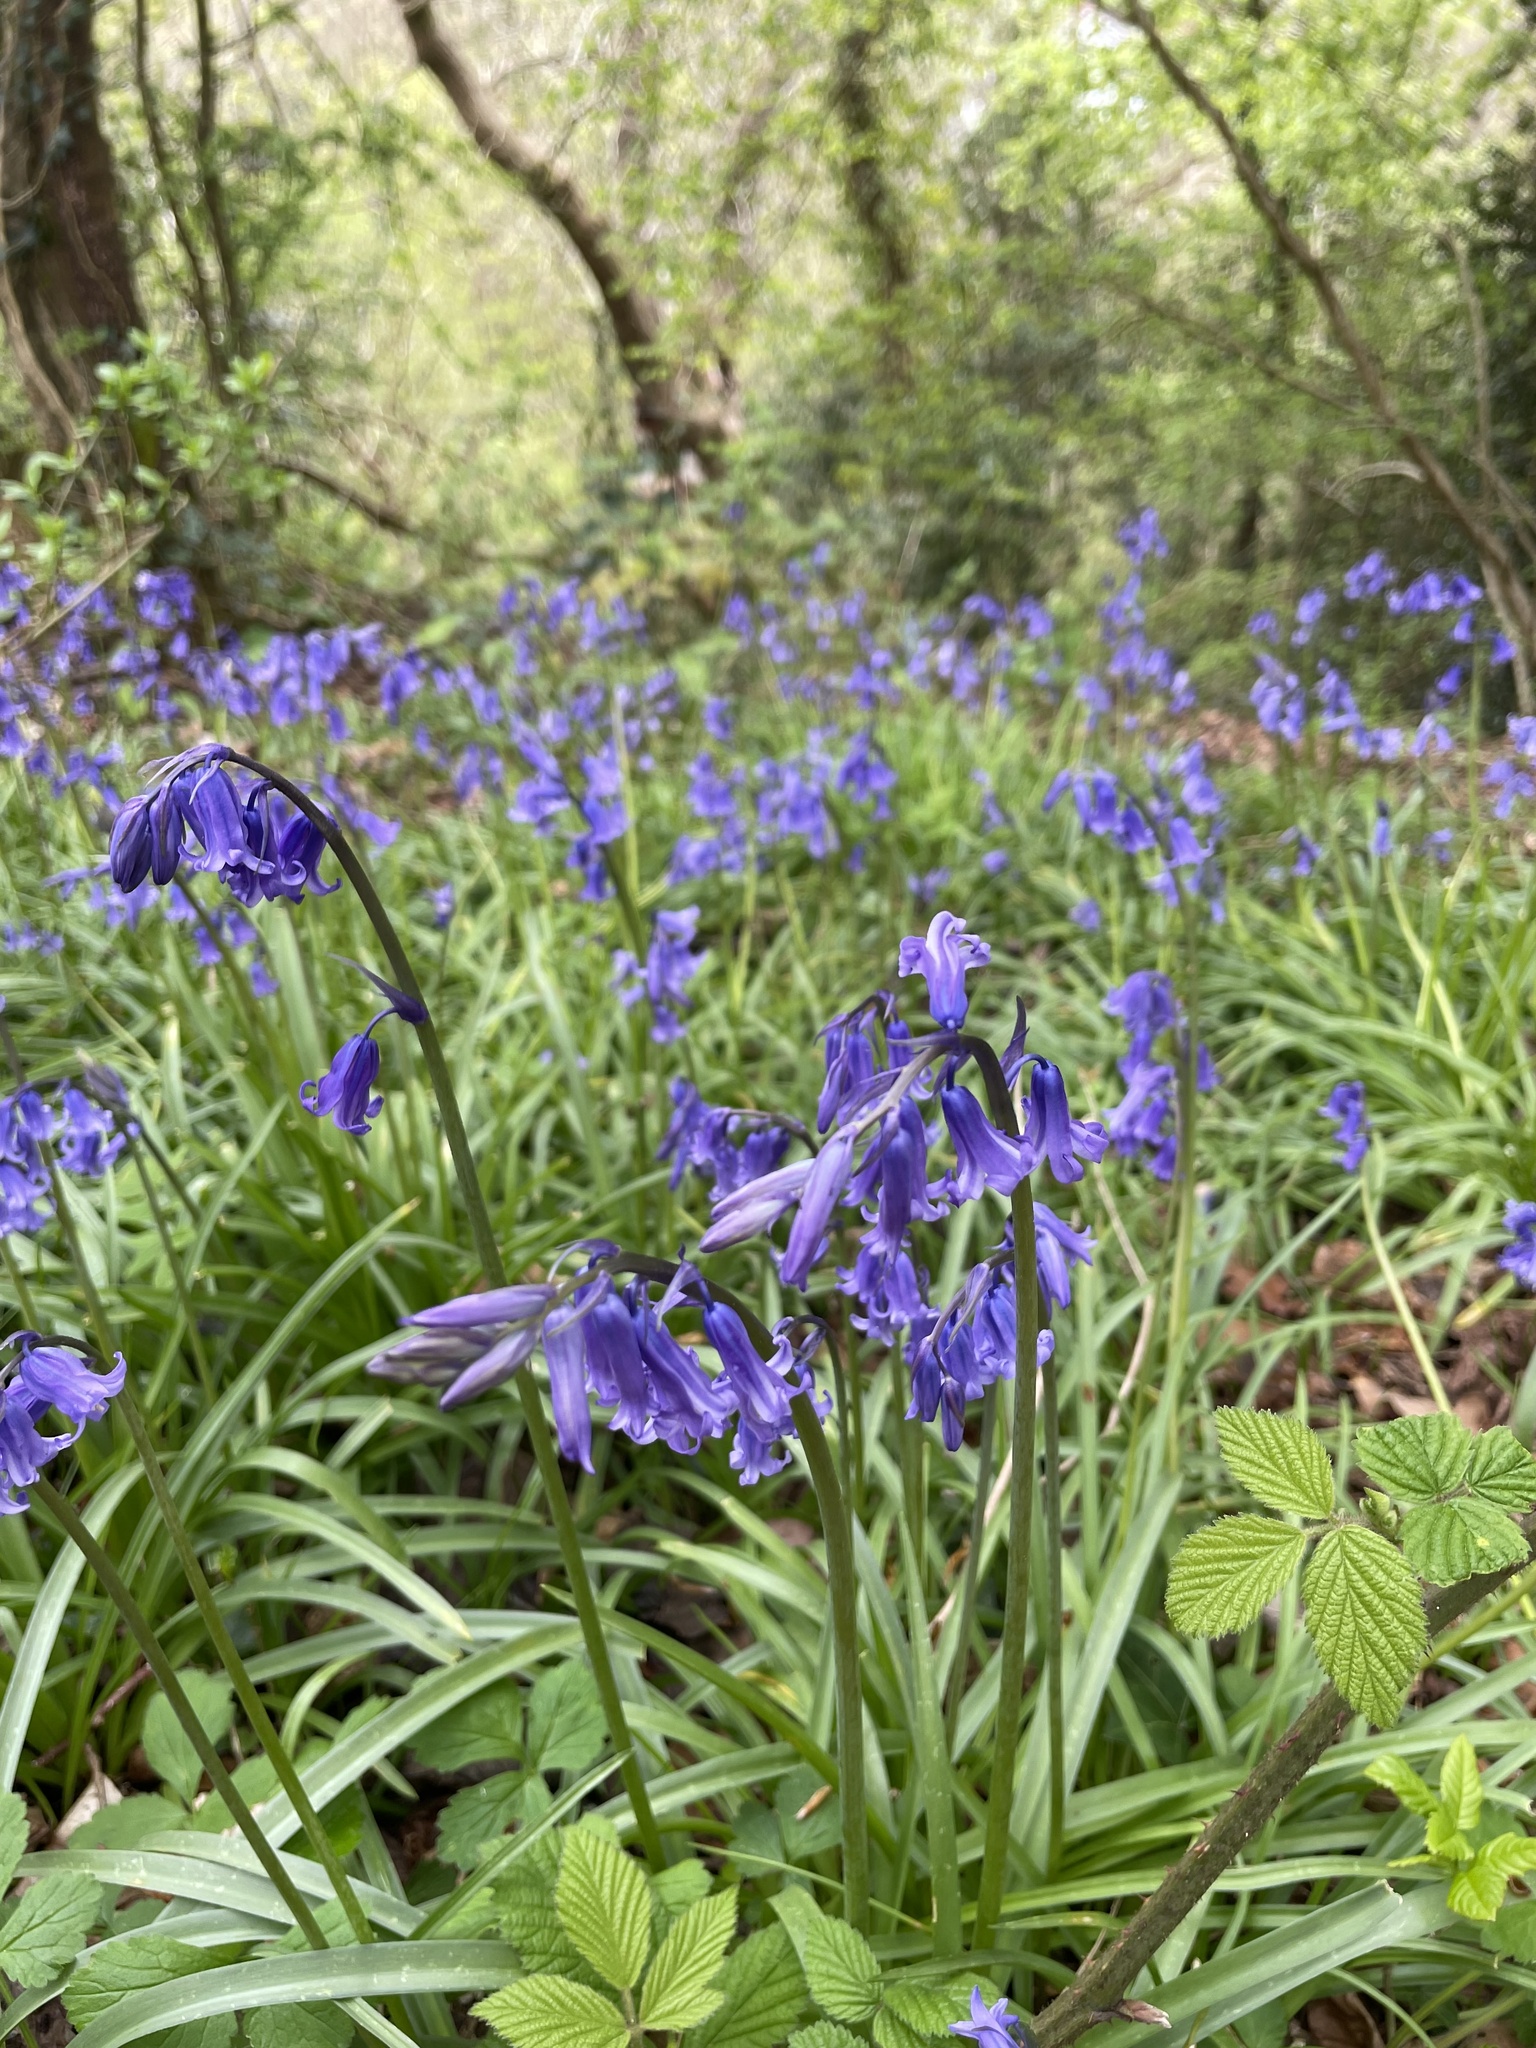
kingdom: Plantae
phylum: Tracheophyta
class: Liliopsida
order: Asparagales
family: Asparagaceae
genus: Hyacinthoides
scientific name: Hyacinthoides non-scripta
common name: Bluebell
